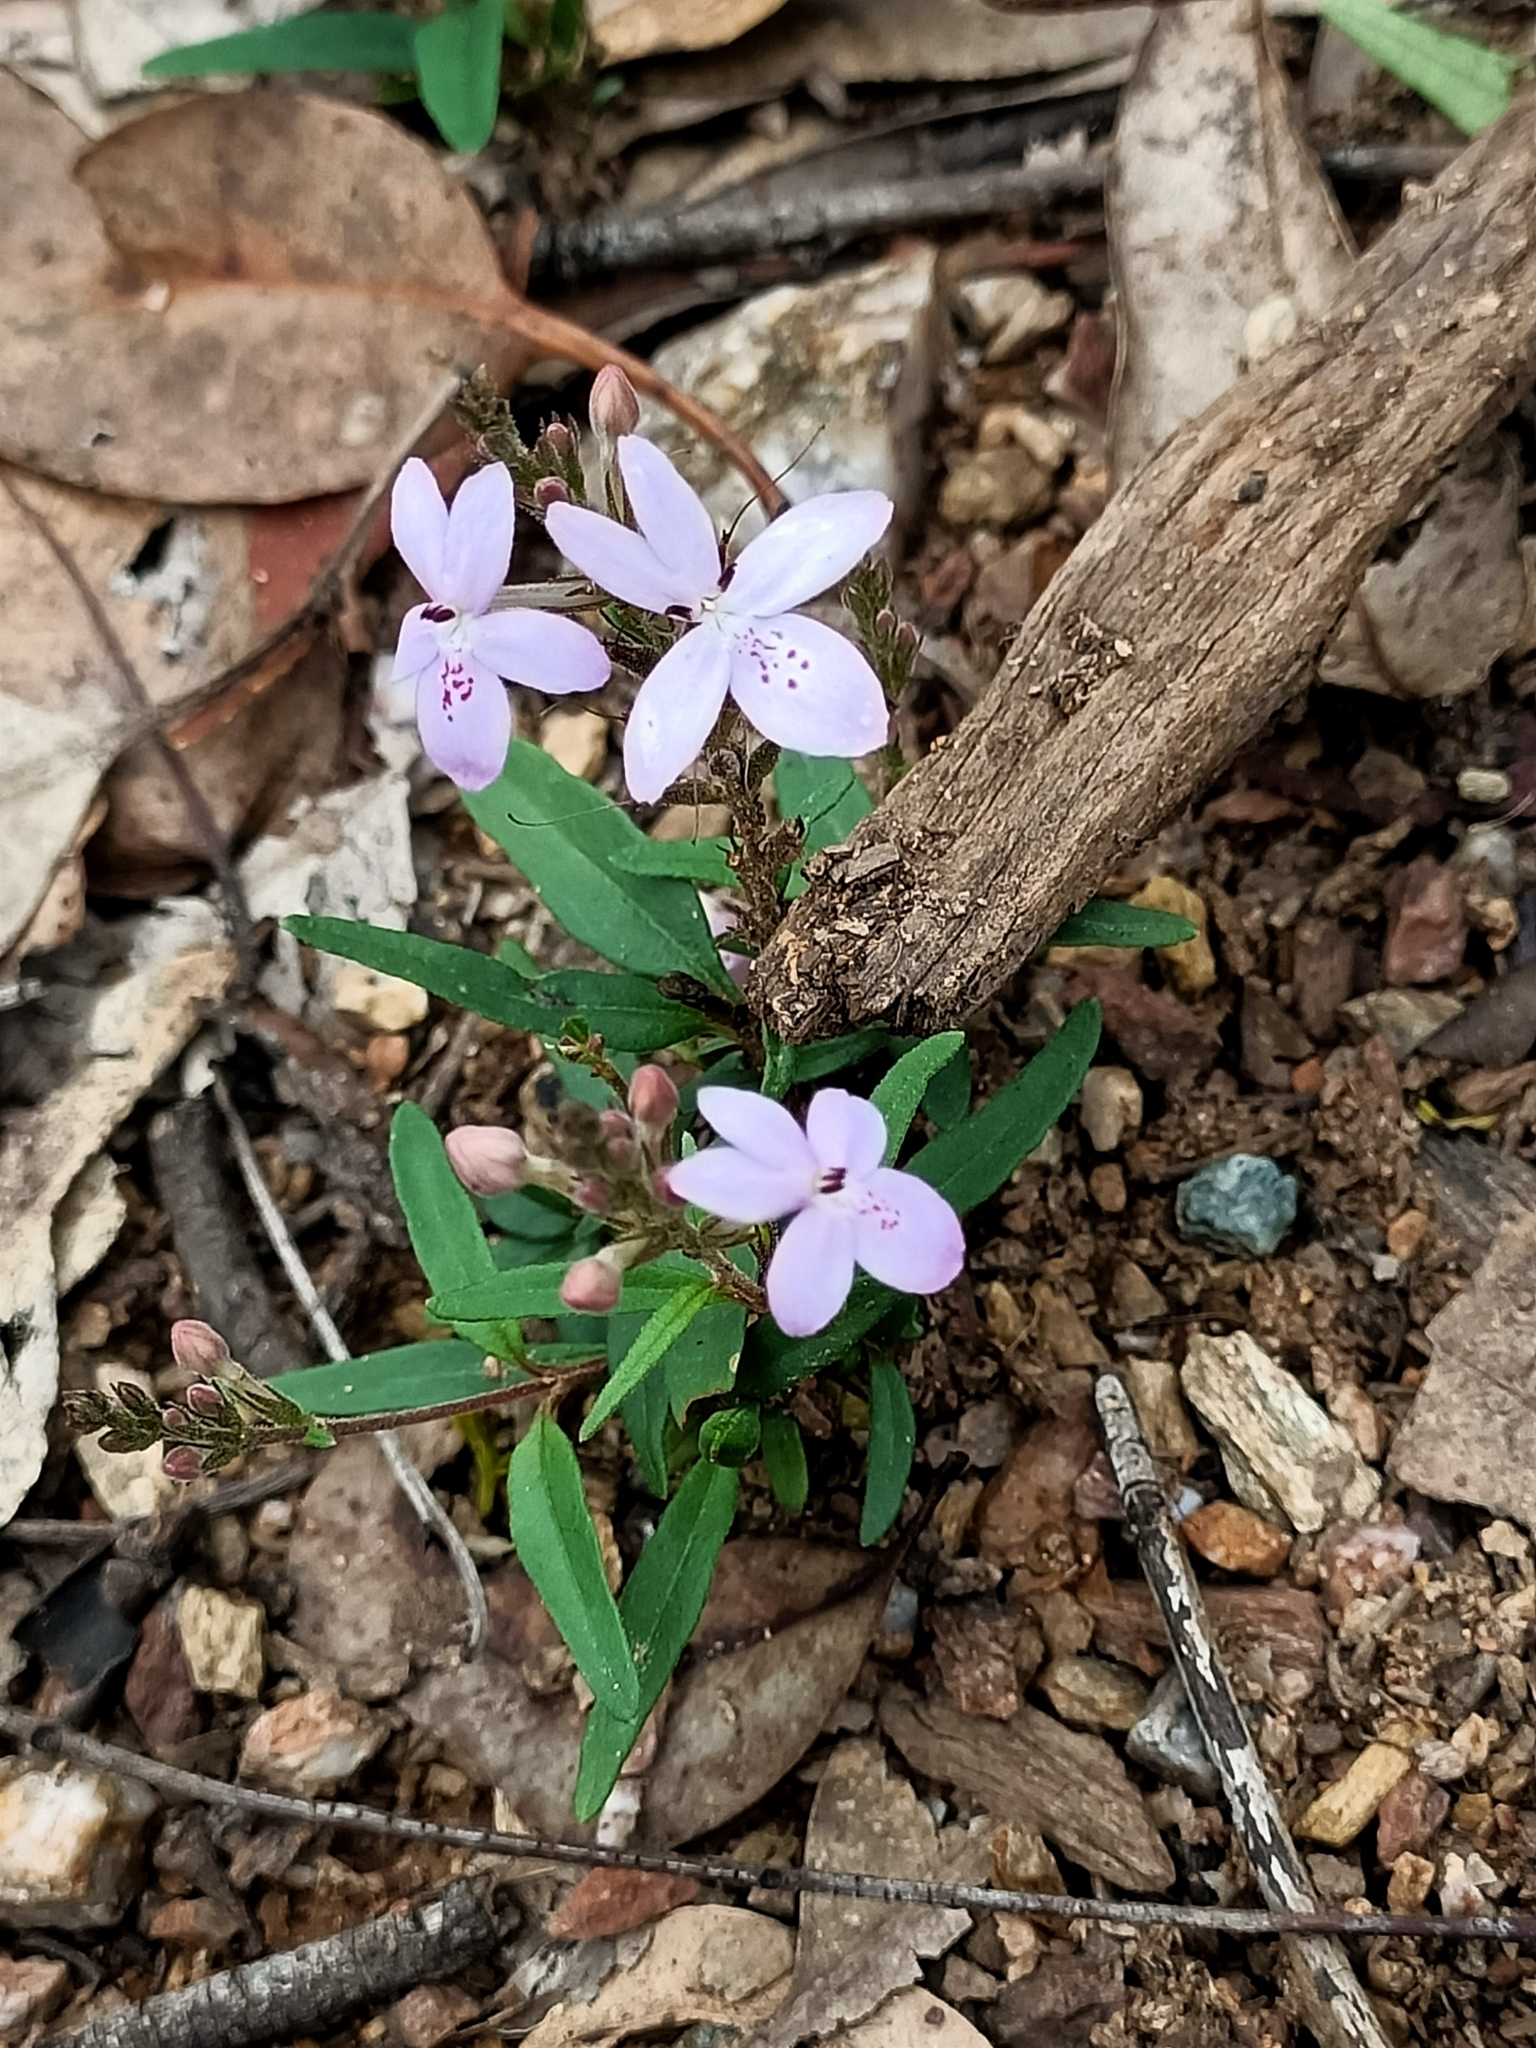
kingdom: Plantae
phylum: Tracheophyta
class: Magnoliopsida
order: Lamiales
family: Acanthaceae
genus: Pseuderanthemum
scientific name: Pseuderanthemum variabile
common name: Night and afternoon
